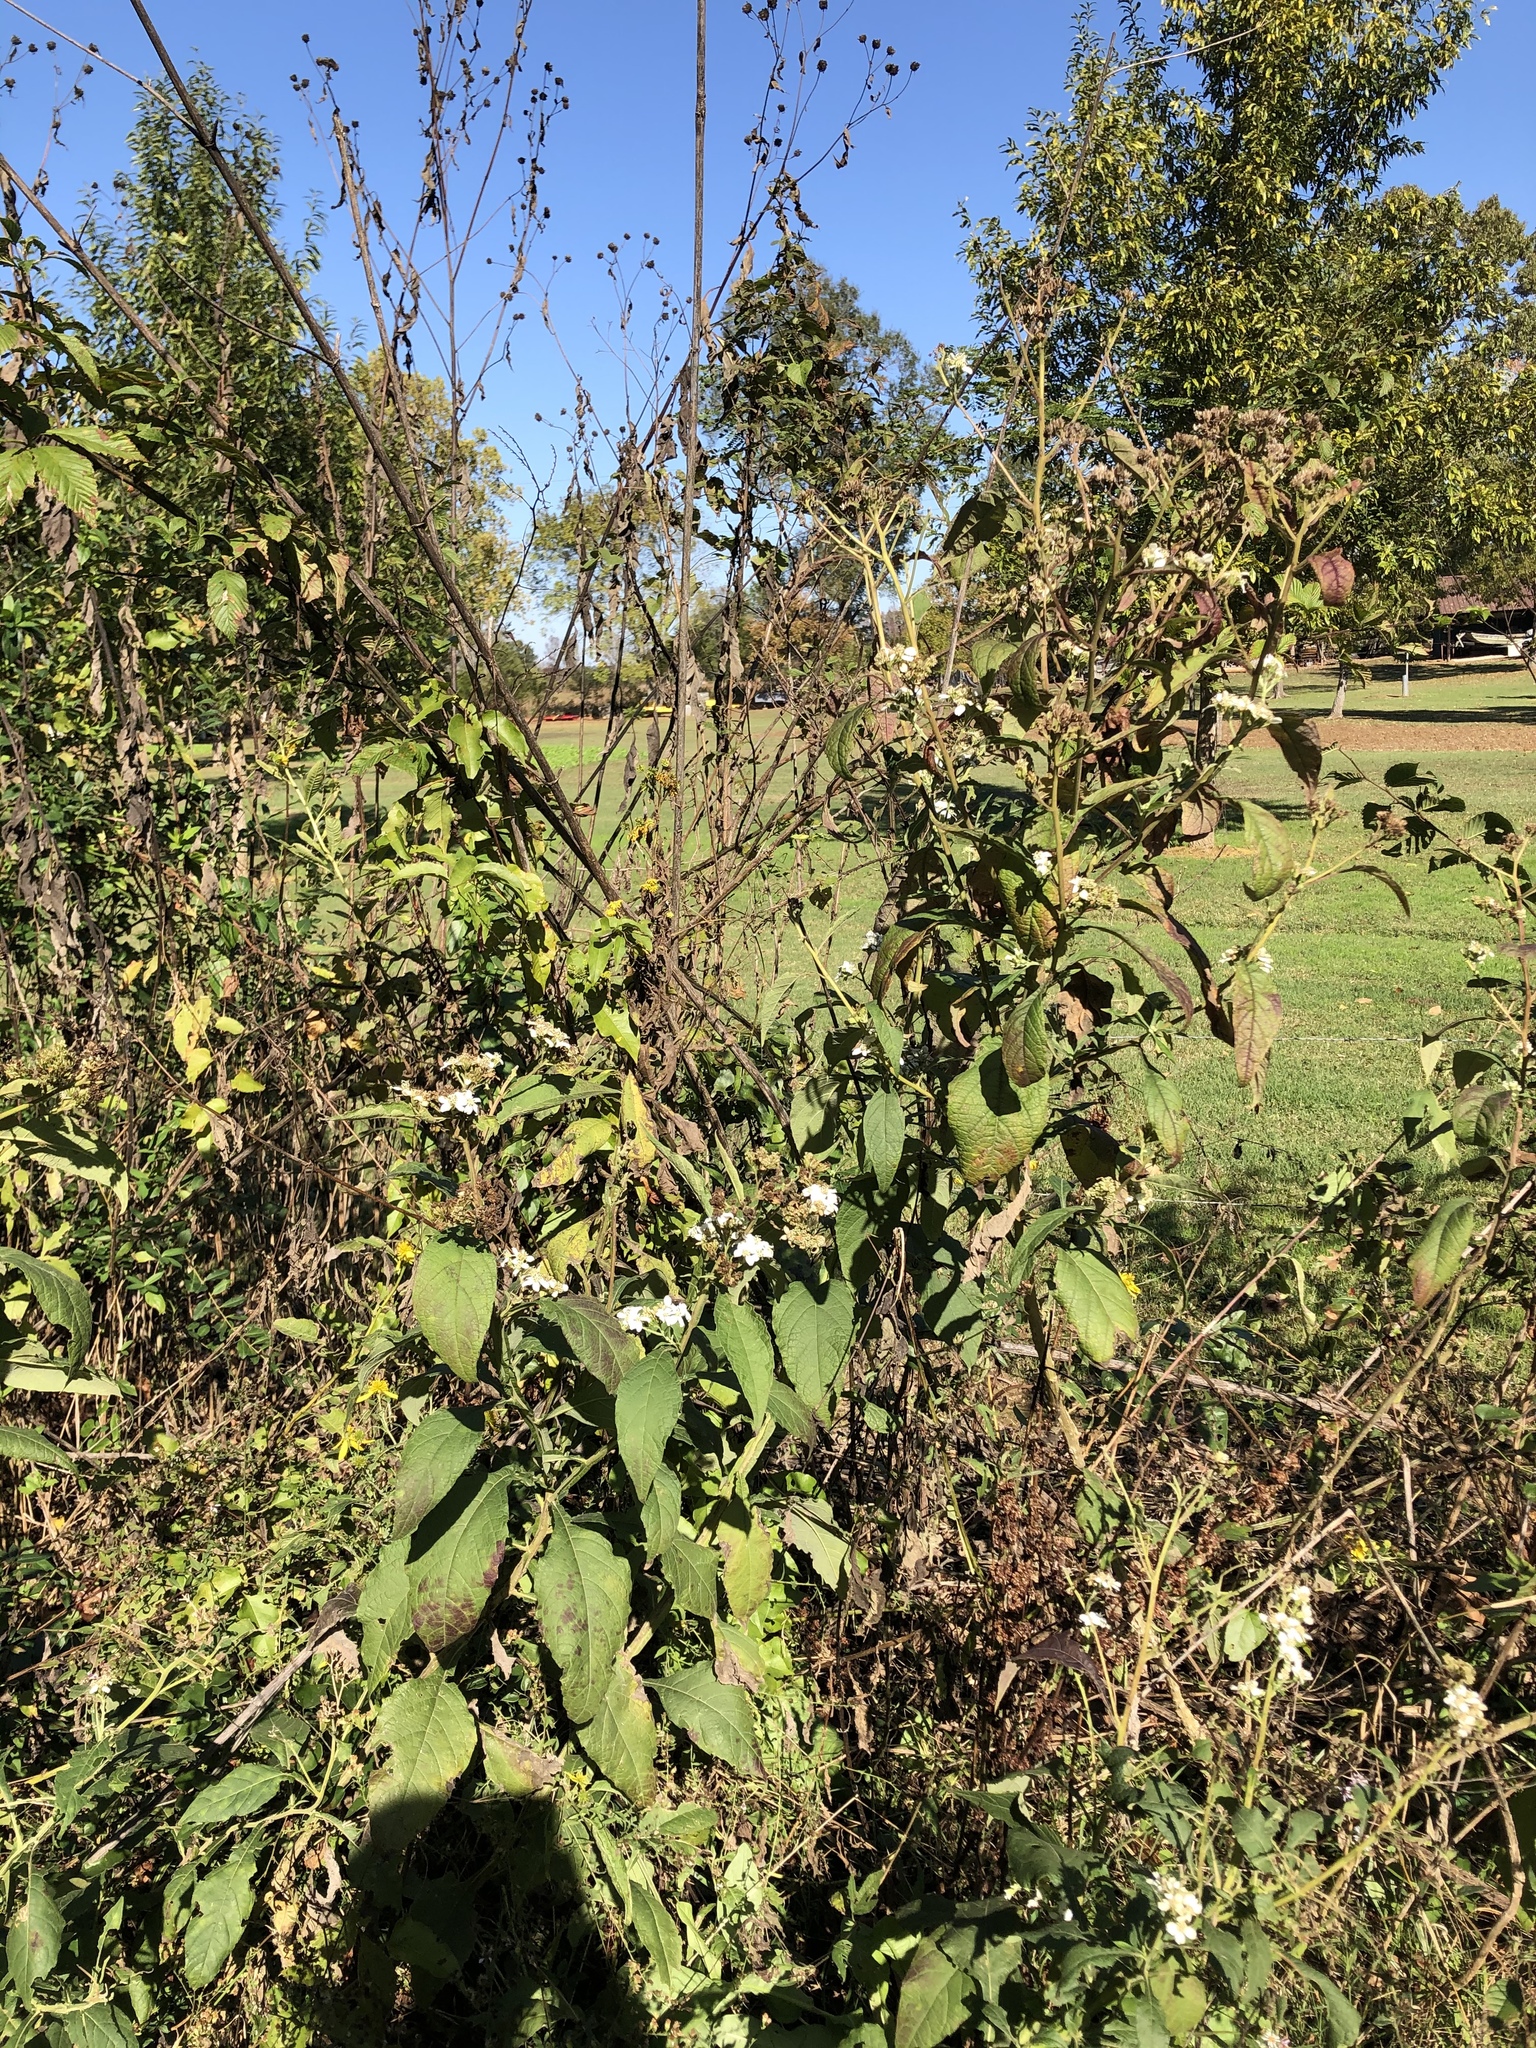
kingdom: Plantae
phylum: Tracheophyta
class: Magnoliopsida
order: Asterales
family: Asteraceae
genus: Verbesina
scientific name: Verbesina virginica
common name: Frostweed
